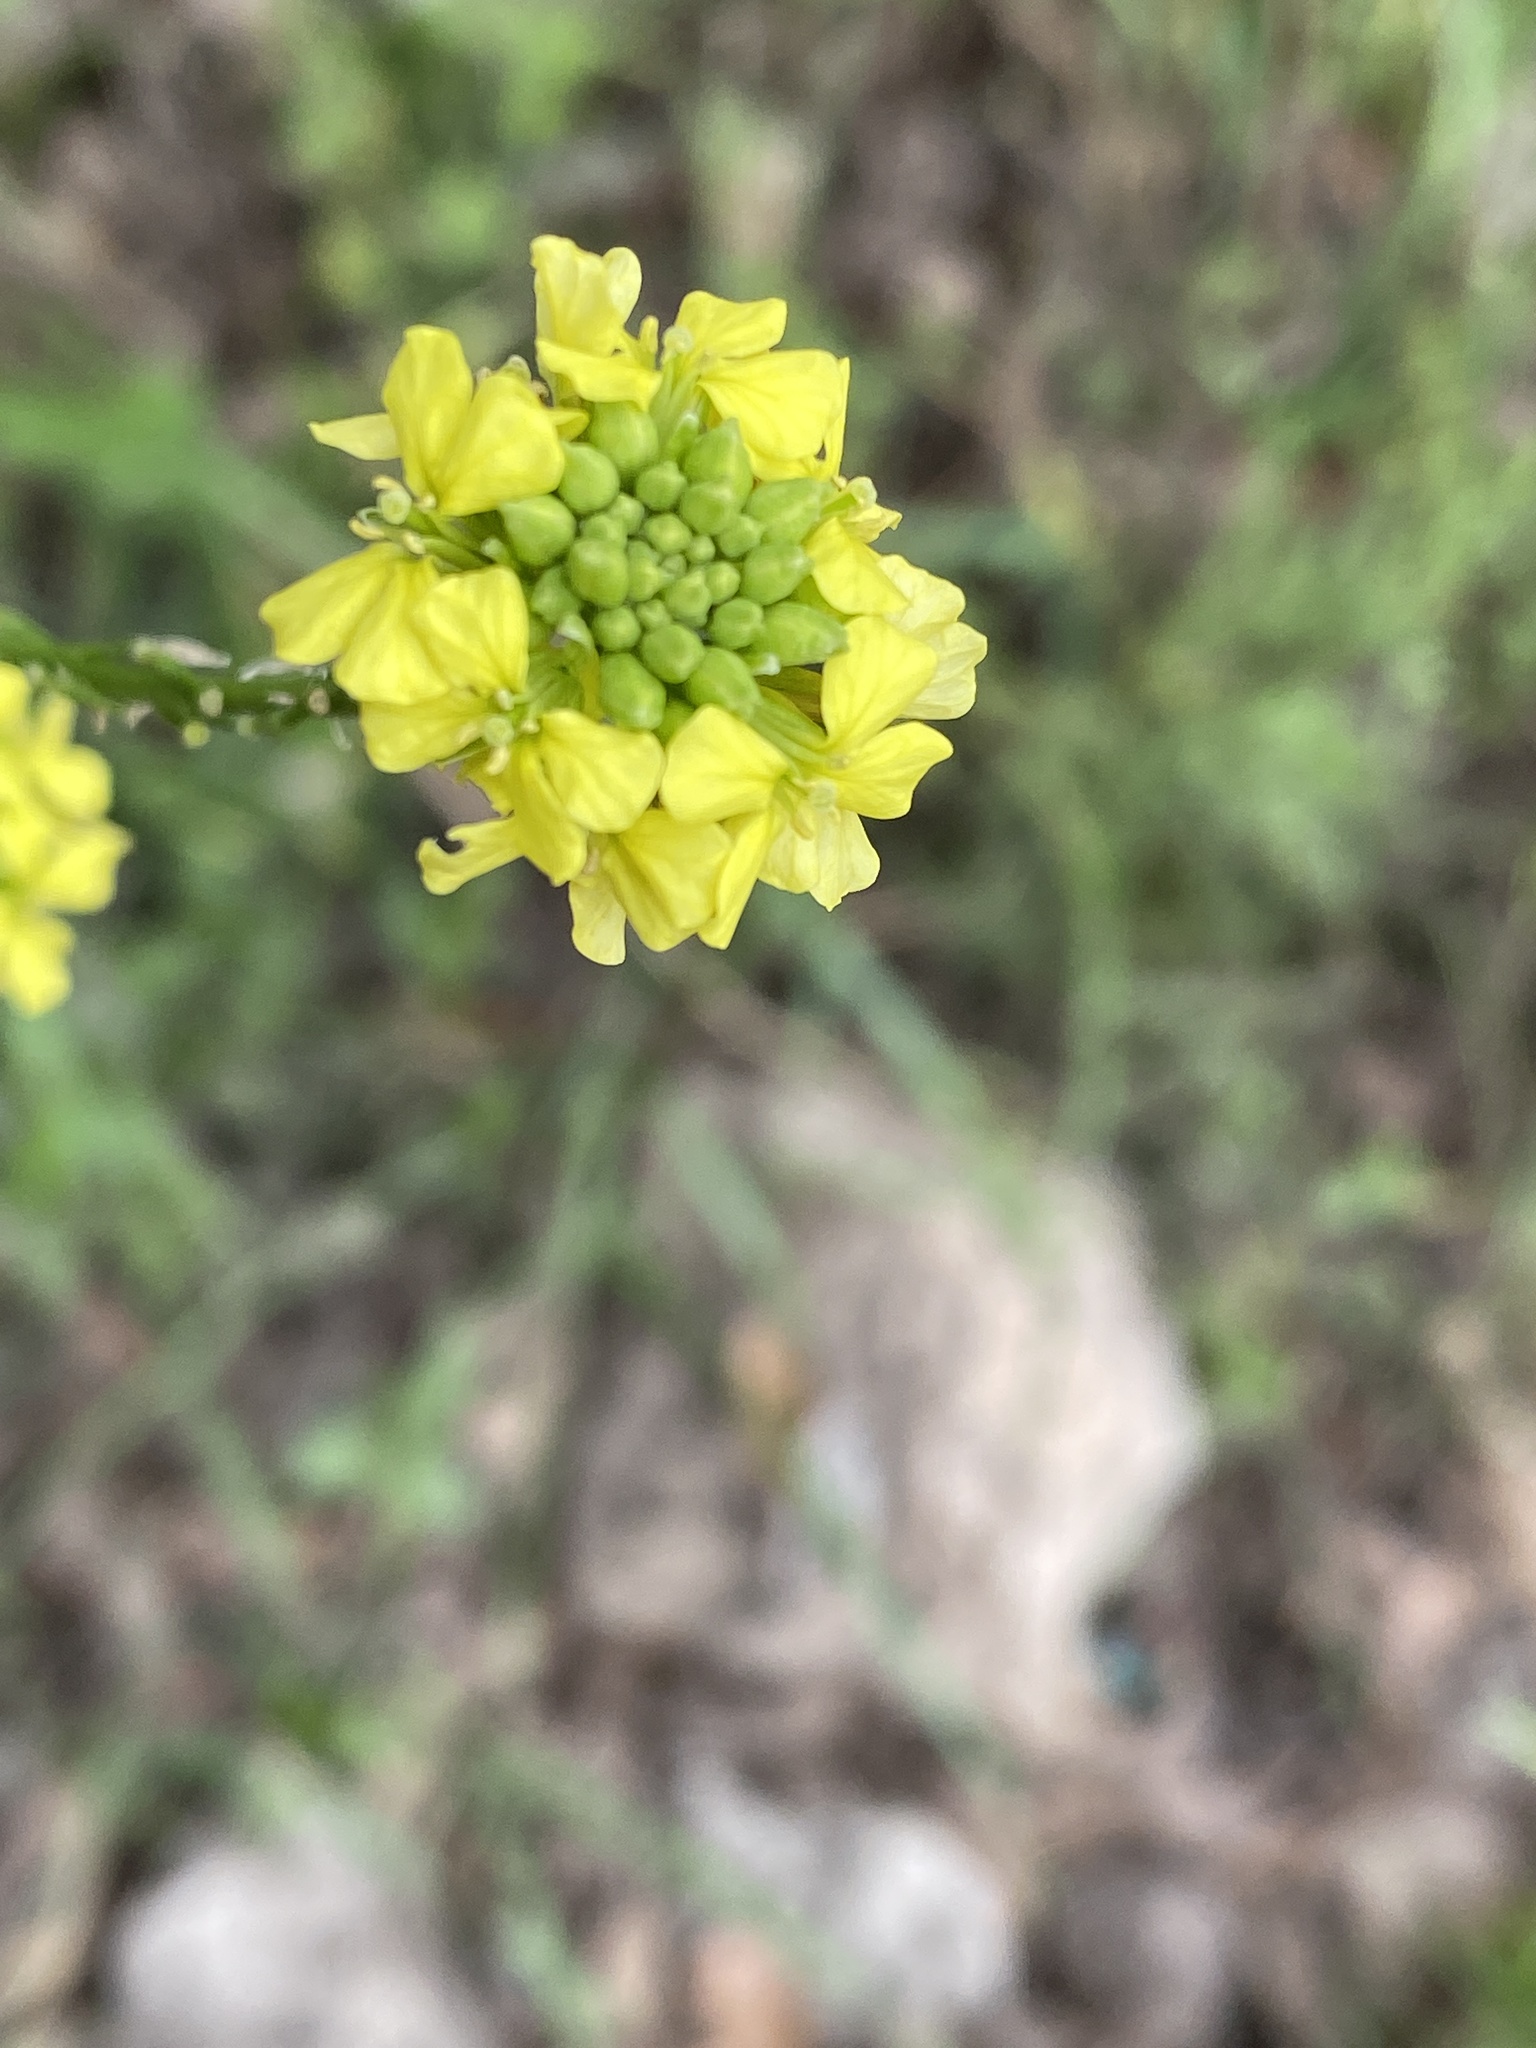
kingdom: Plantae
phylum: Tracheophyta
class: Magnoliopsida
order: Brassicales
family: Brassicaceae
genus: Rapistrum
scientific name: Rapistrum rugosum
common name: Annual bastardcabbage
